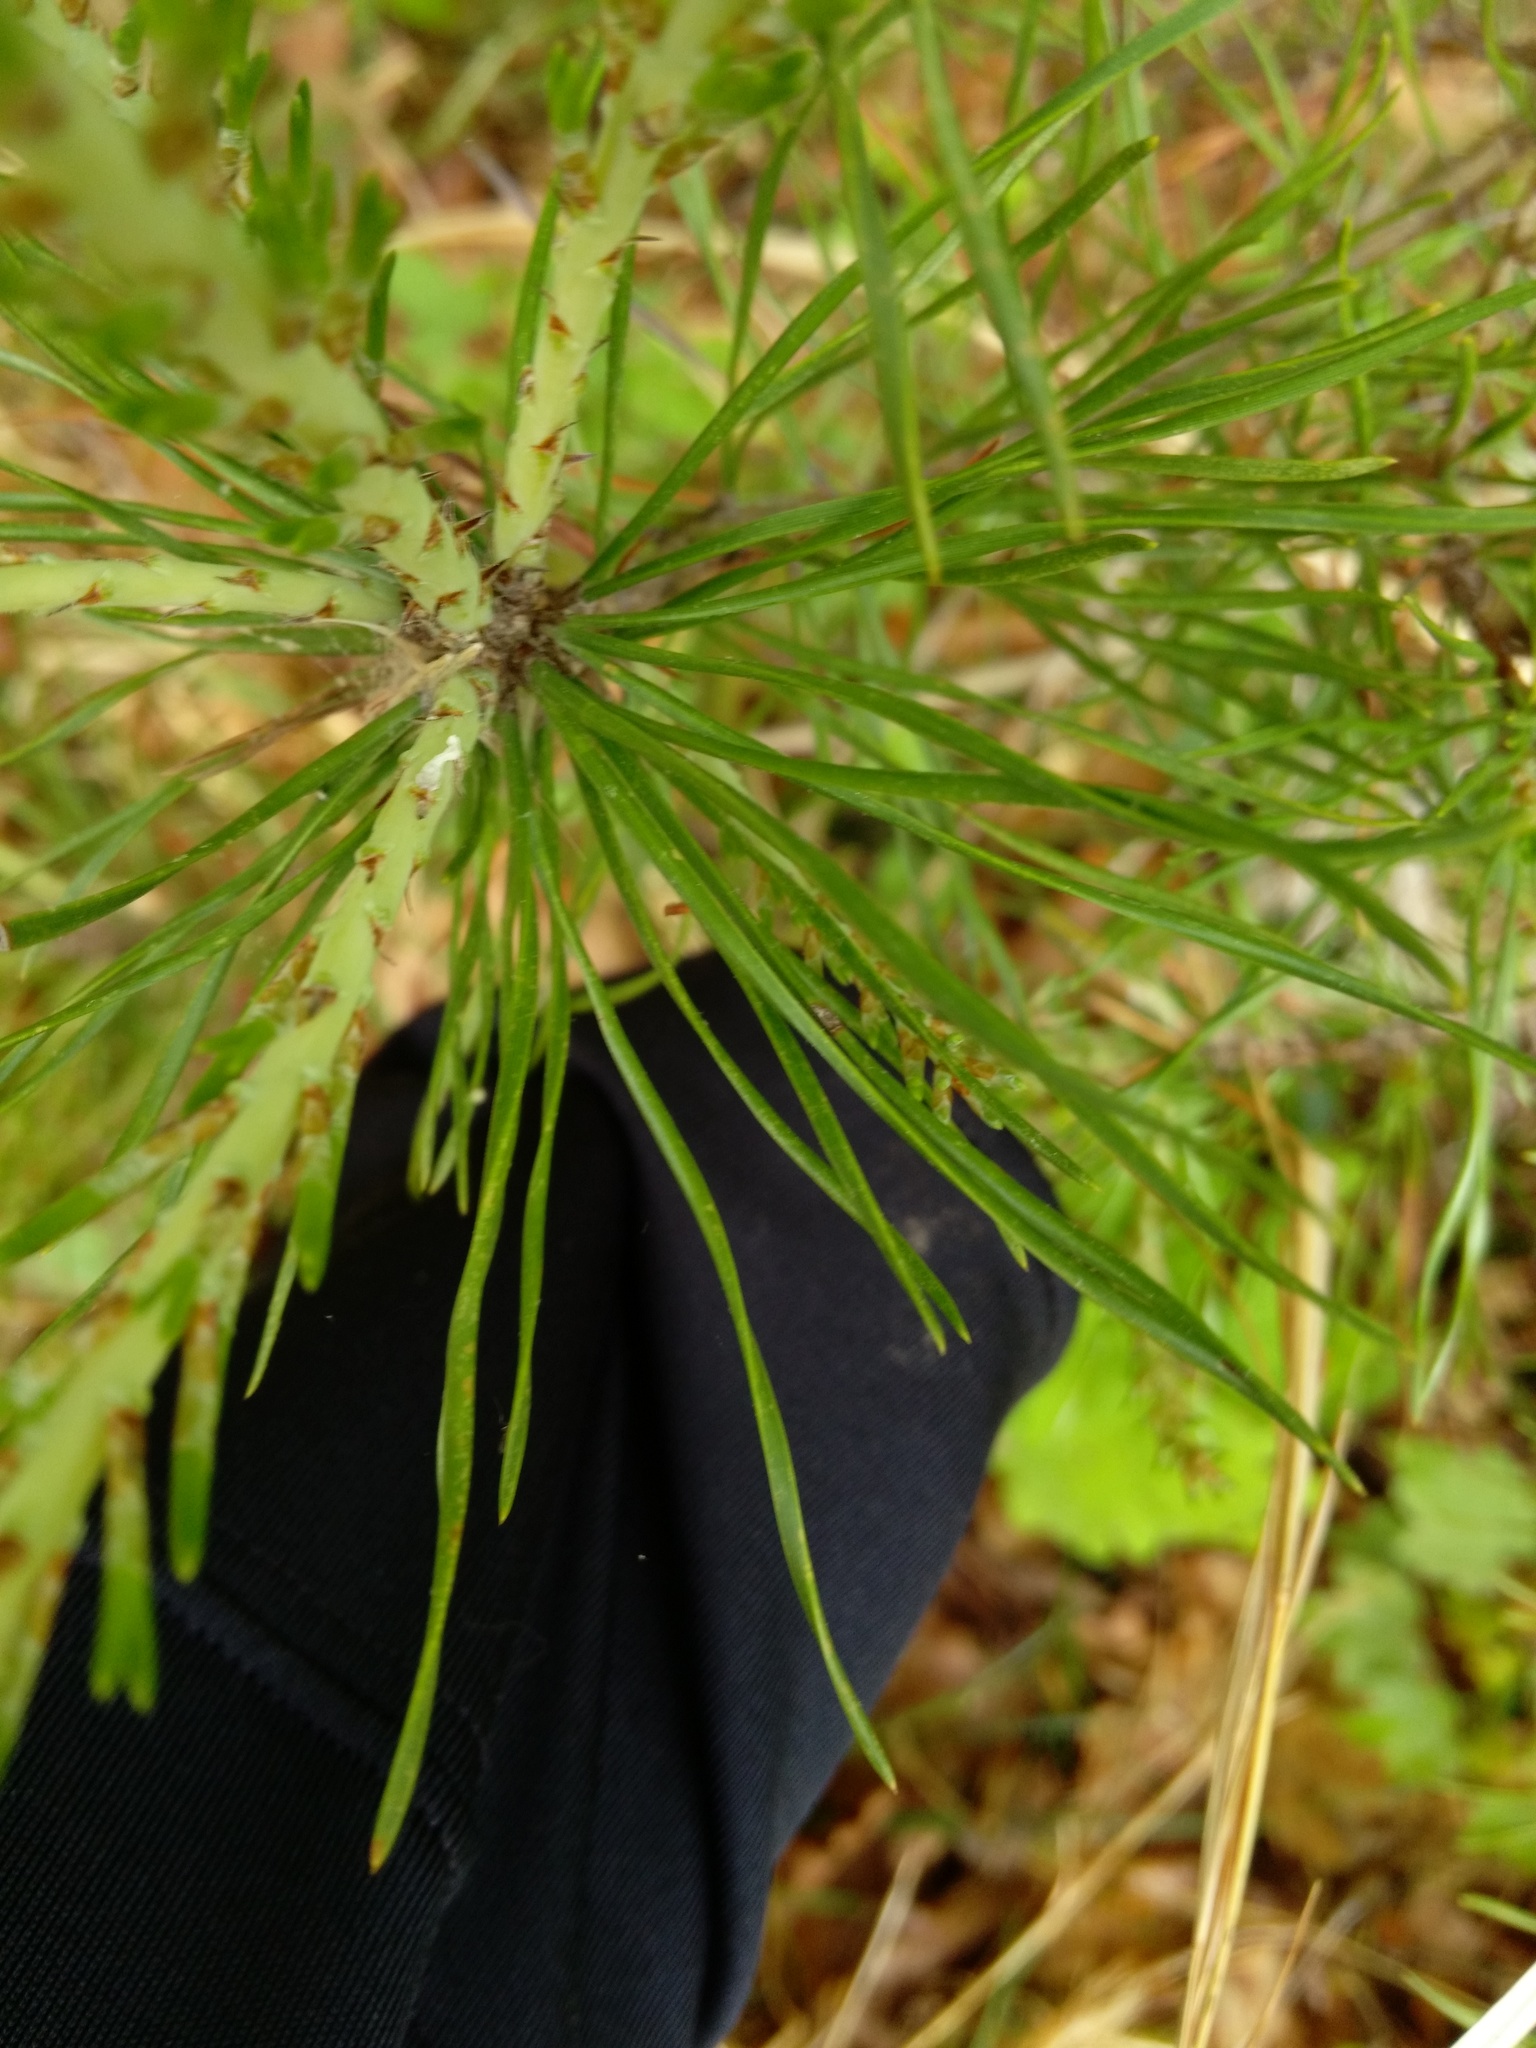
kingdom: Plantae
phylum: Tracheophyta
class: Pinopsida
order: Pinales
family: Pinaceae
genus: Pinus
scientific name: Pinus virginiana
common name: Scrub pine
